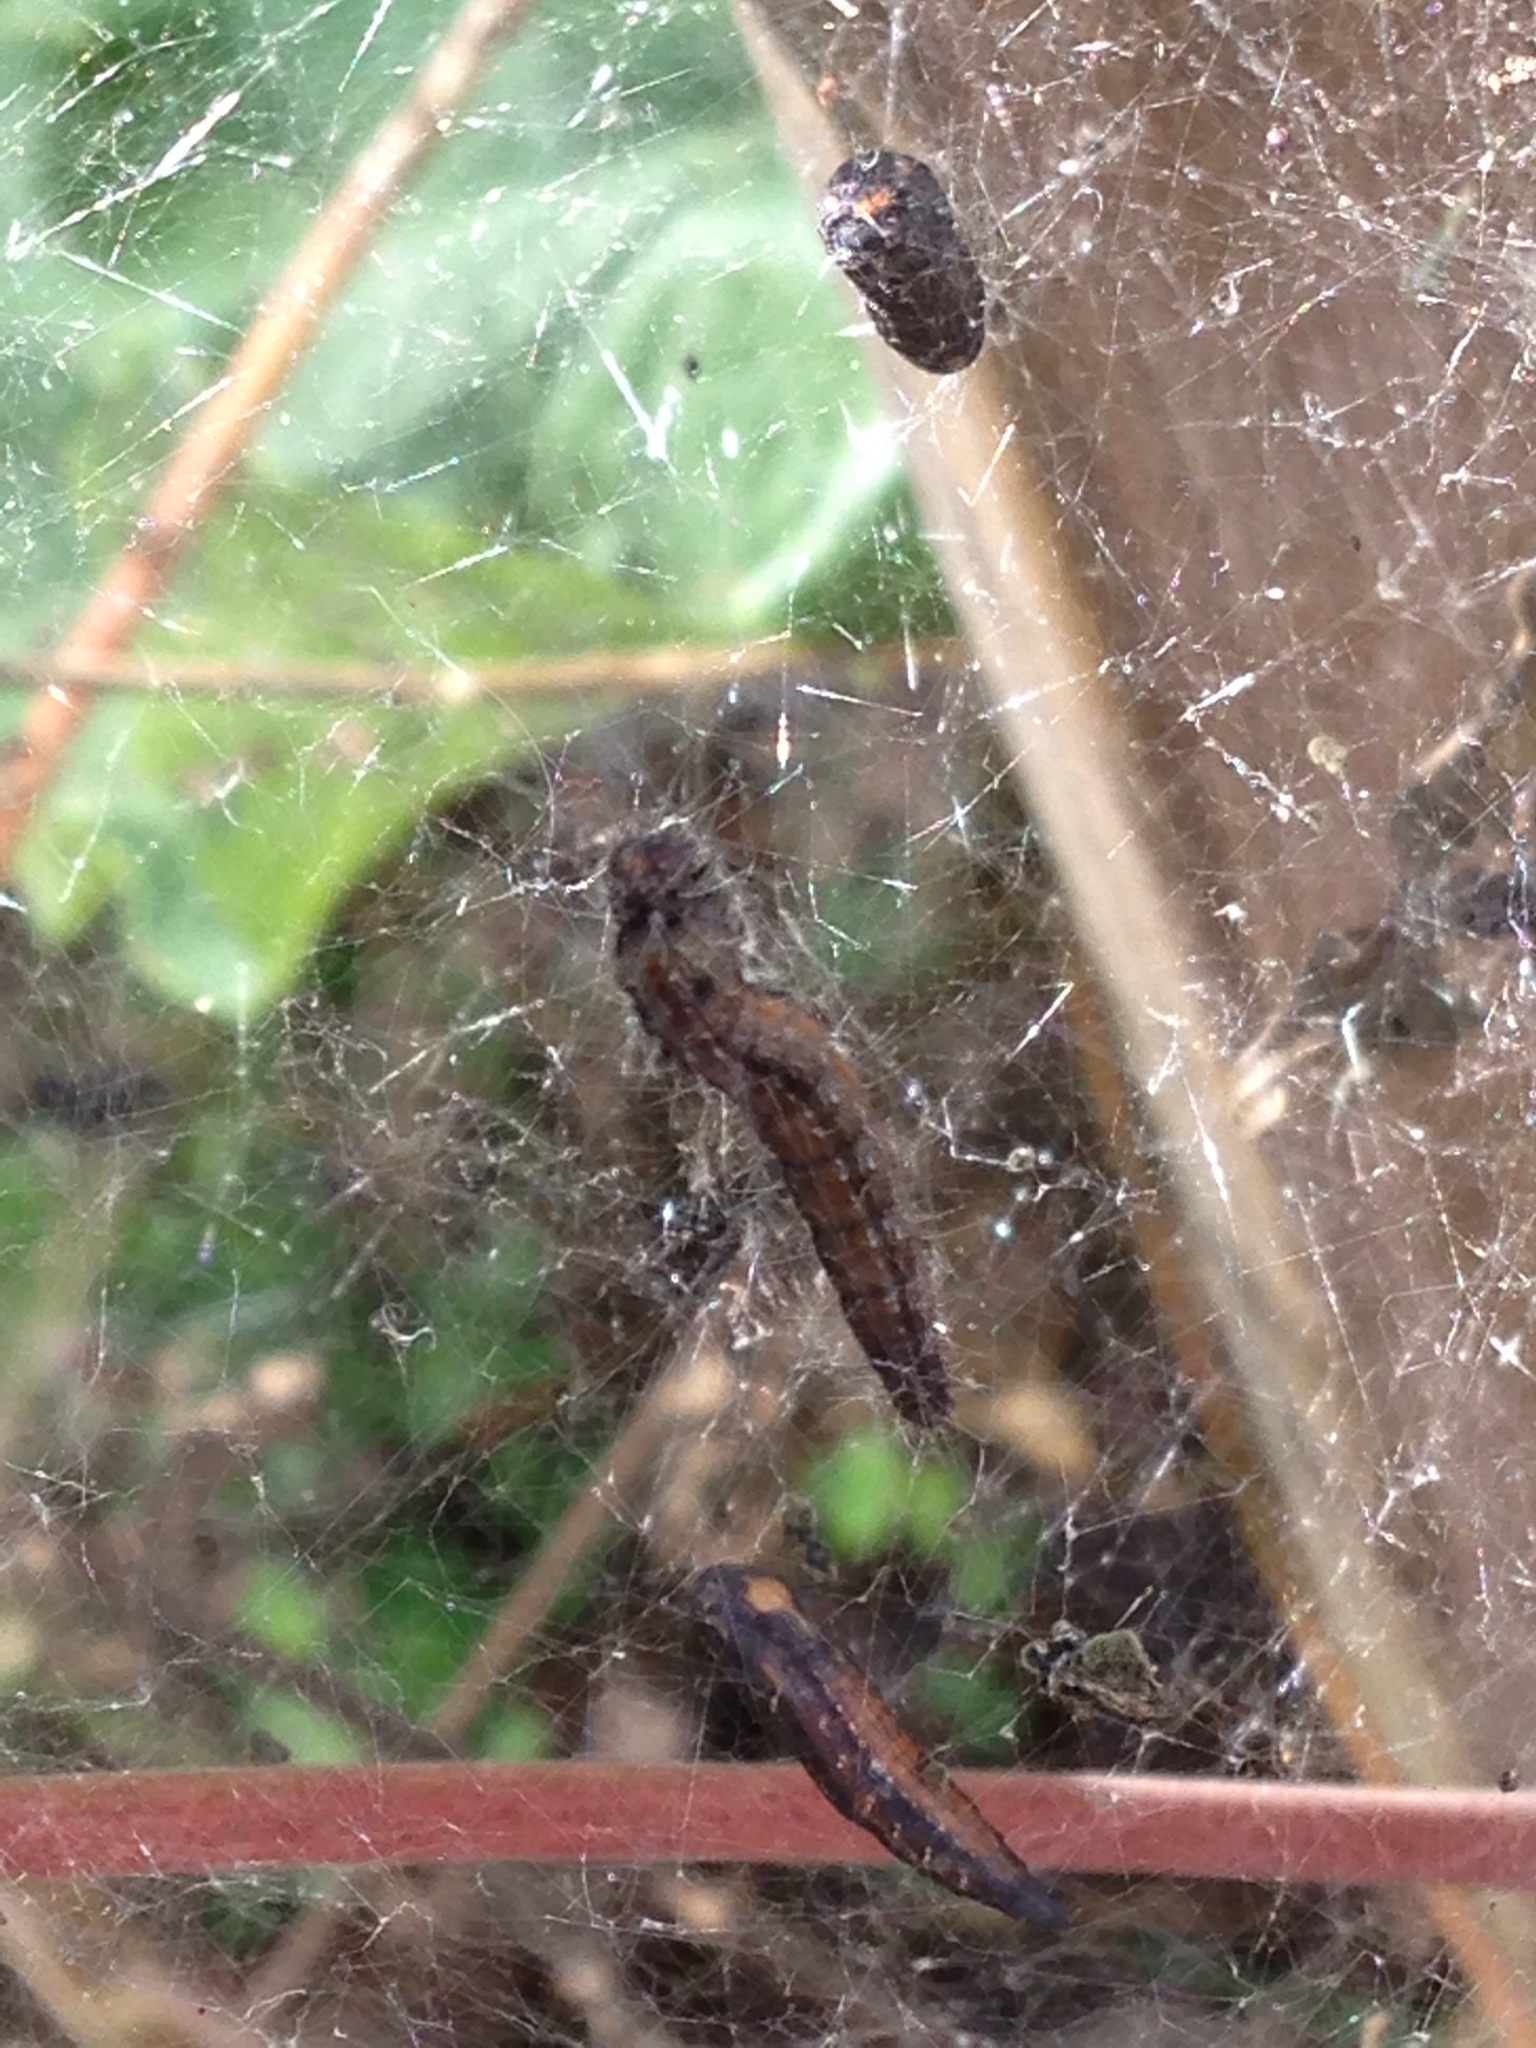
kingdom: Animalia
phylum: Arthropoda
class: Insecta
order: Lepidoptera
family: Attevidae
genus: Atteva
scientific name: Atteva punctella
